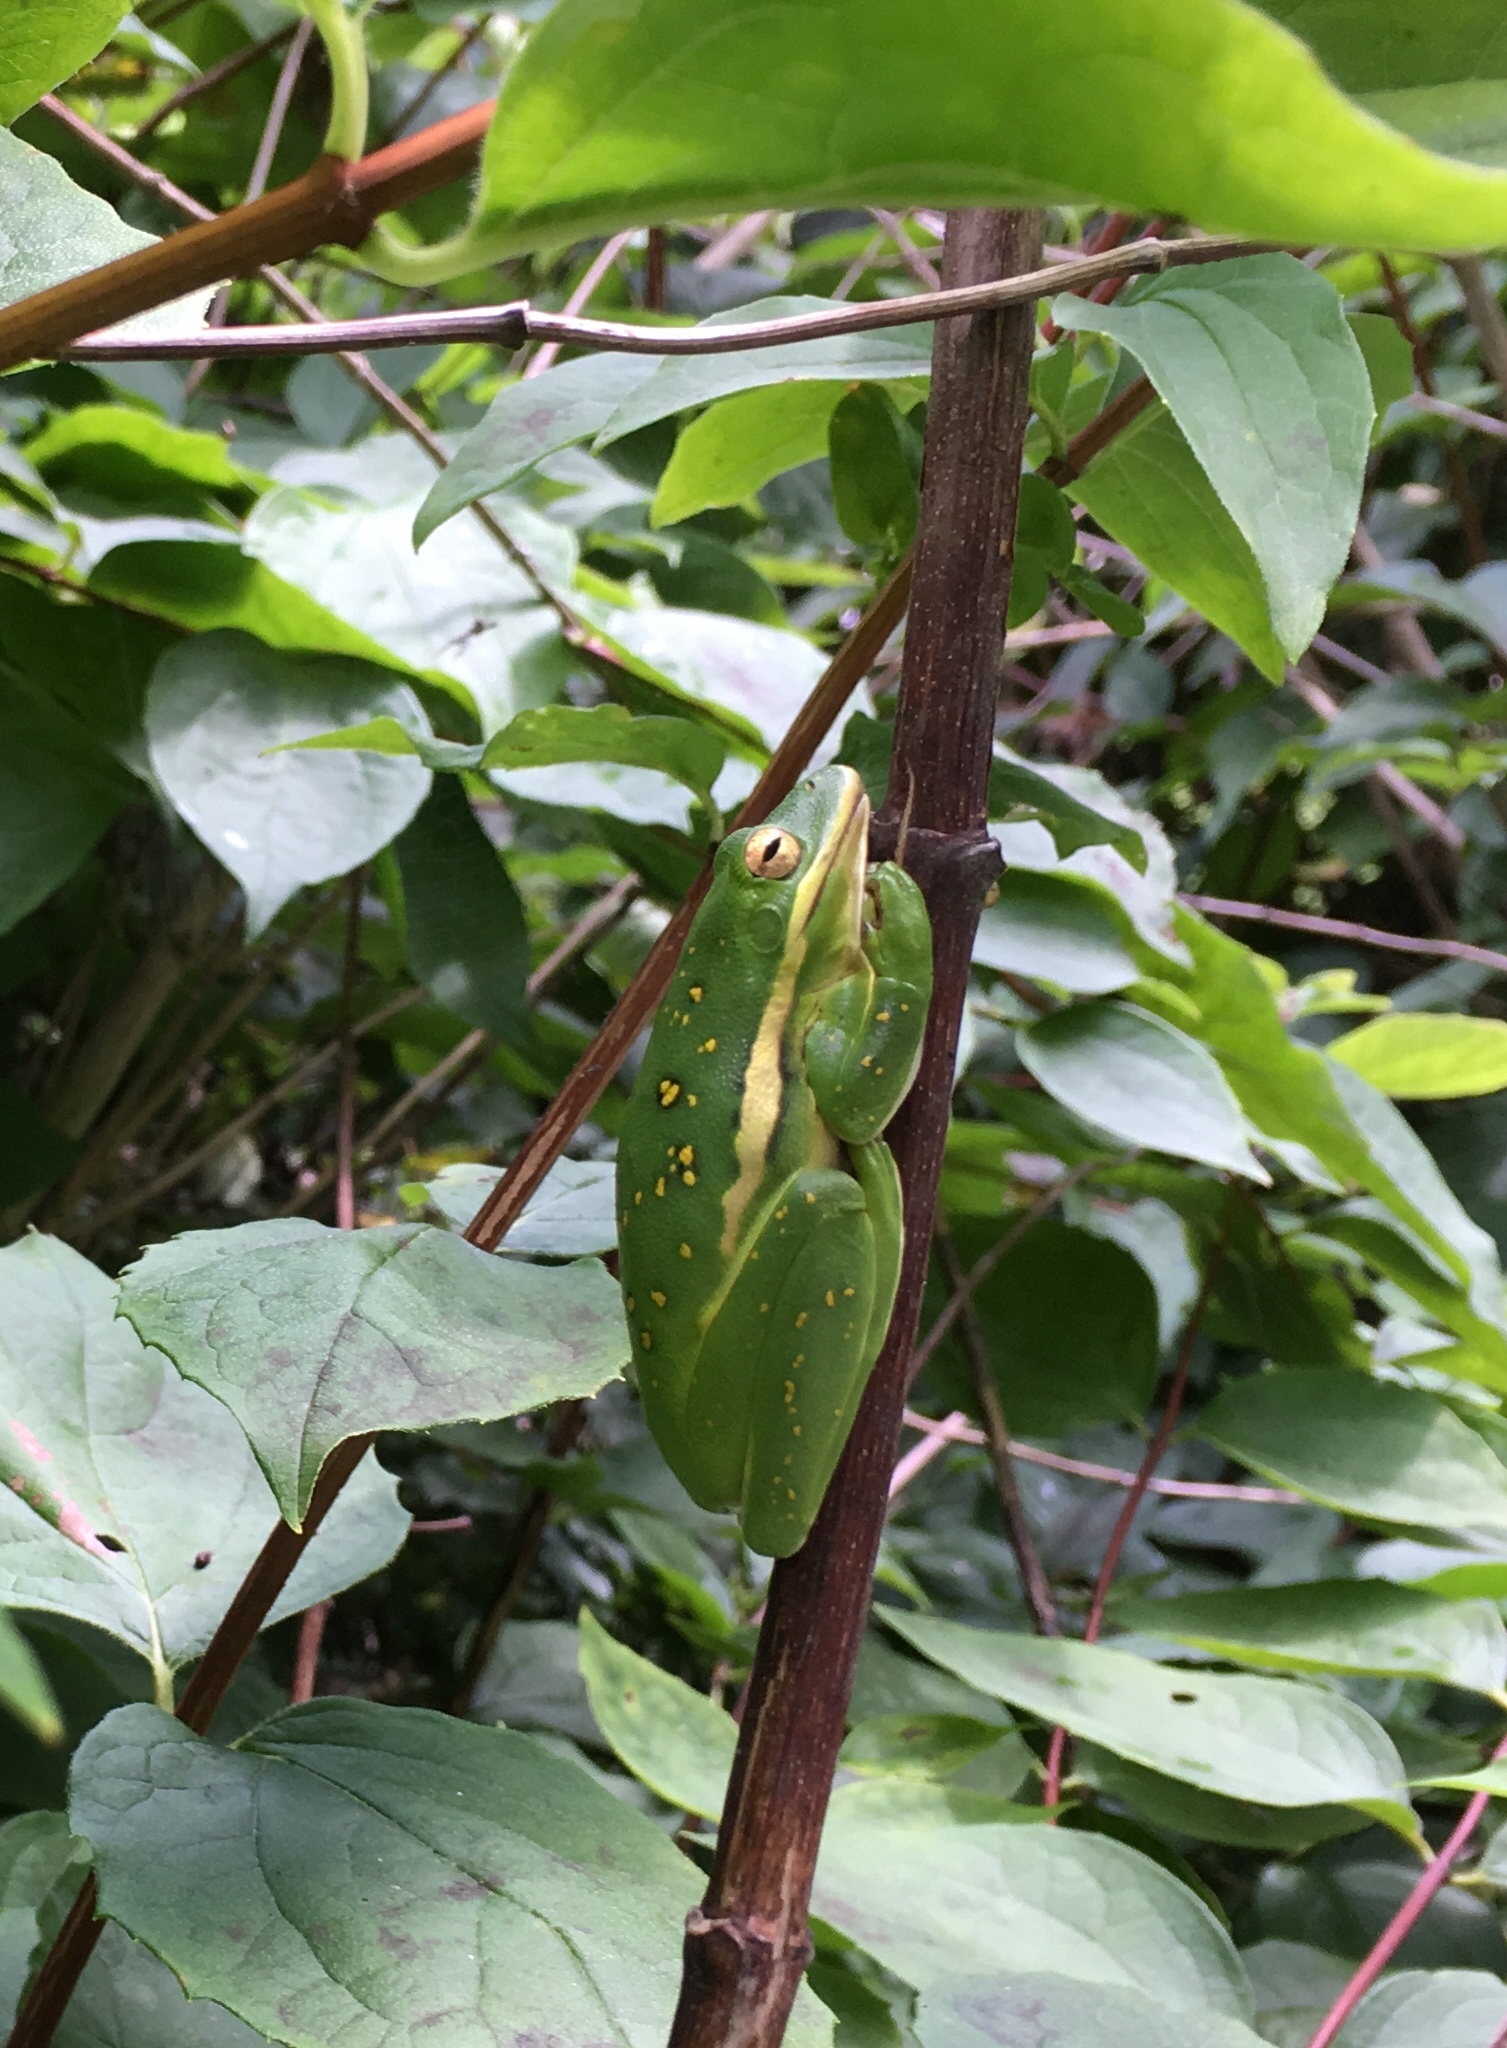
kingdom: Animalia
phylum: Chordata
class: Amphibia
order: Anura
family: Hylidae
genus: Dryophytes
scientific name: Dryophytes cinereus
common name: Green treefrog
